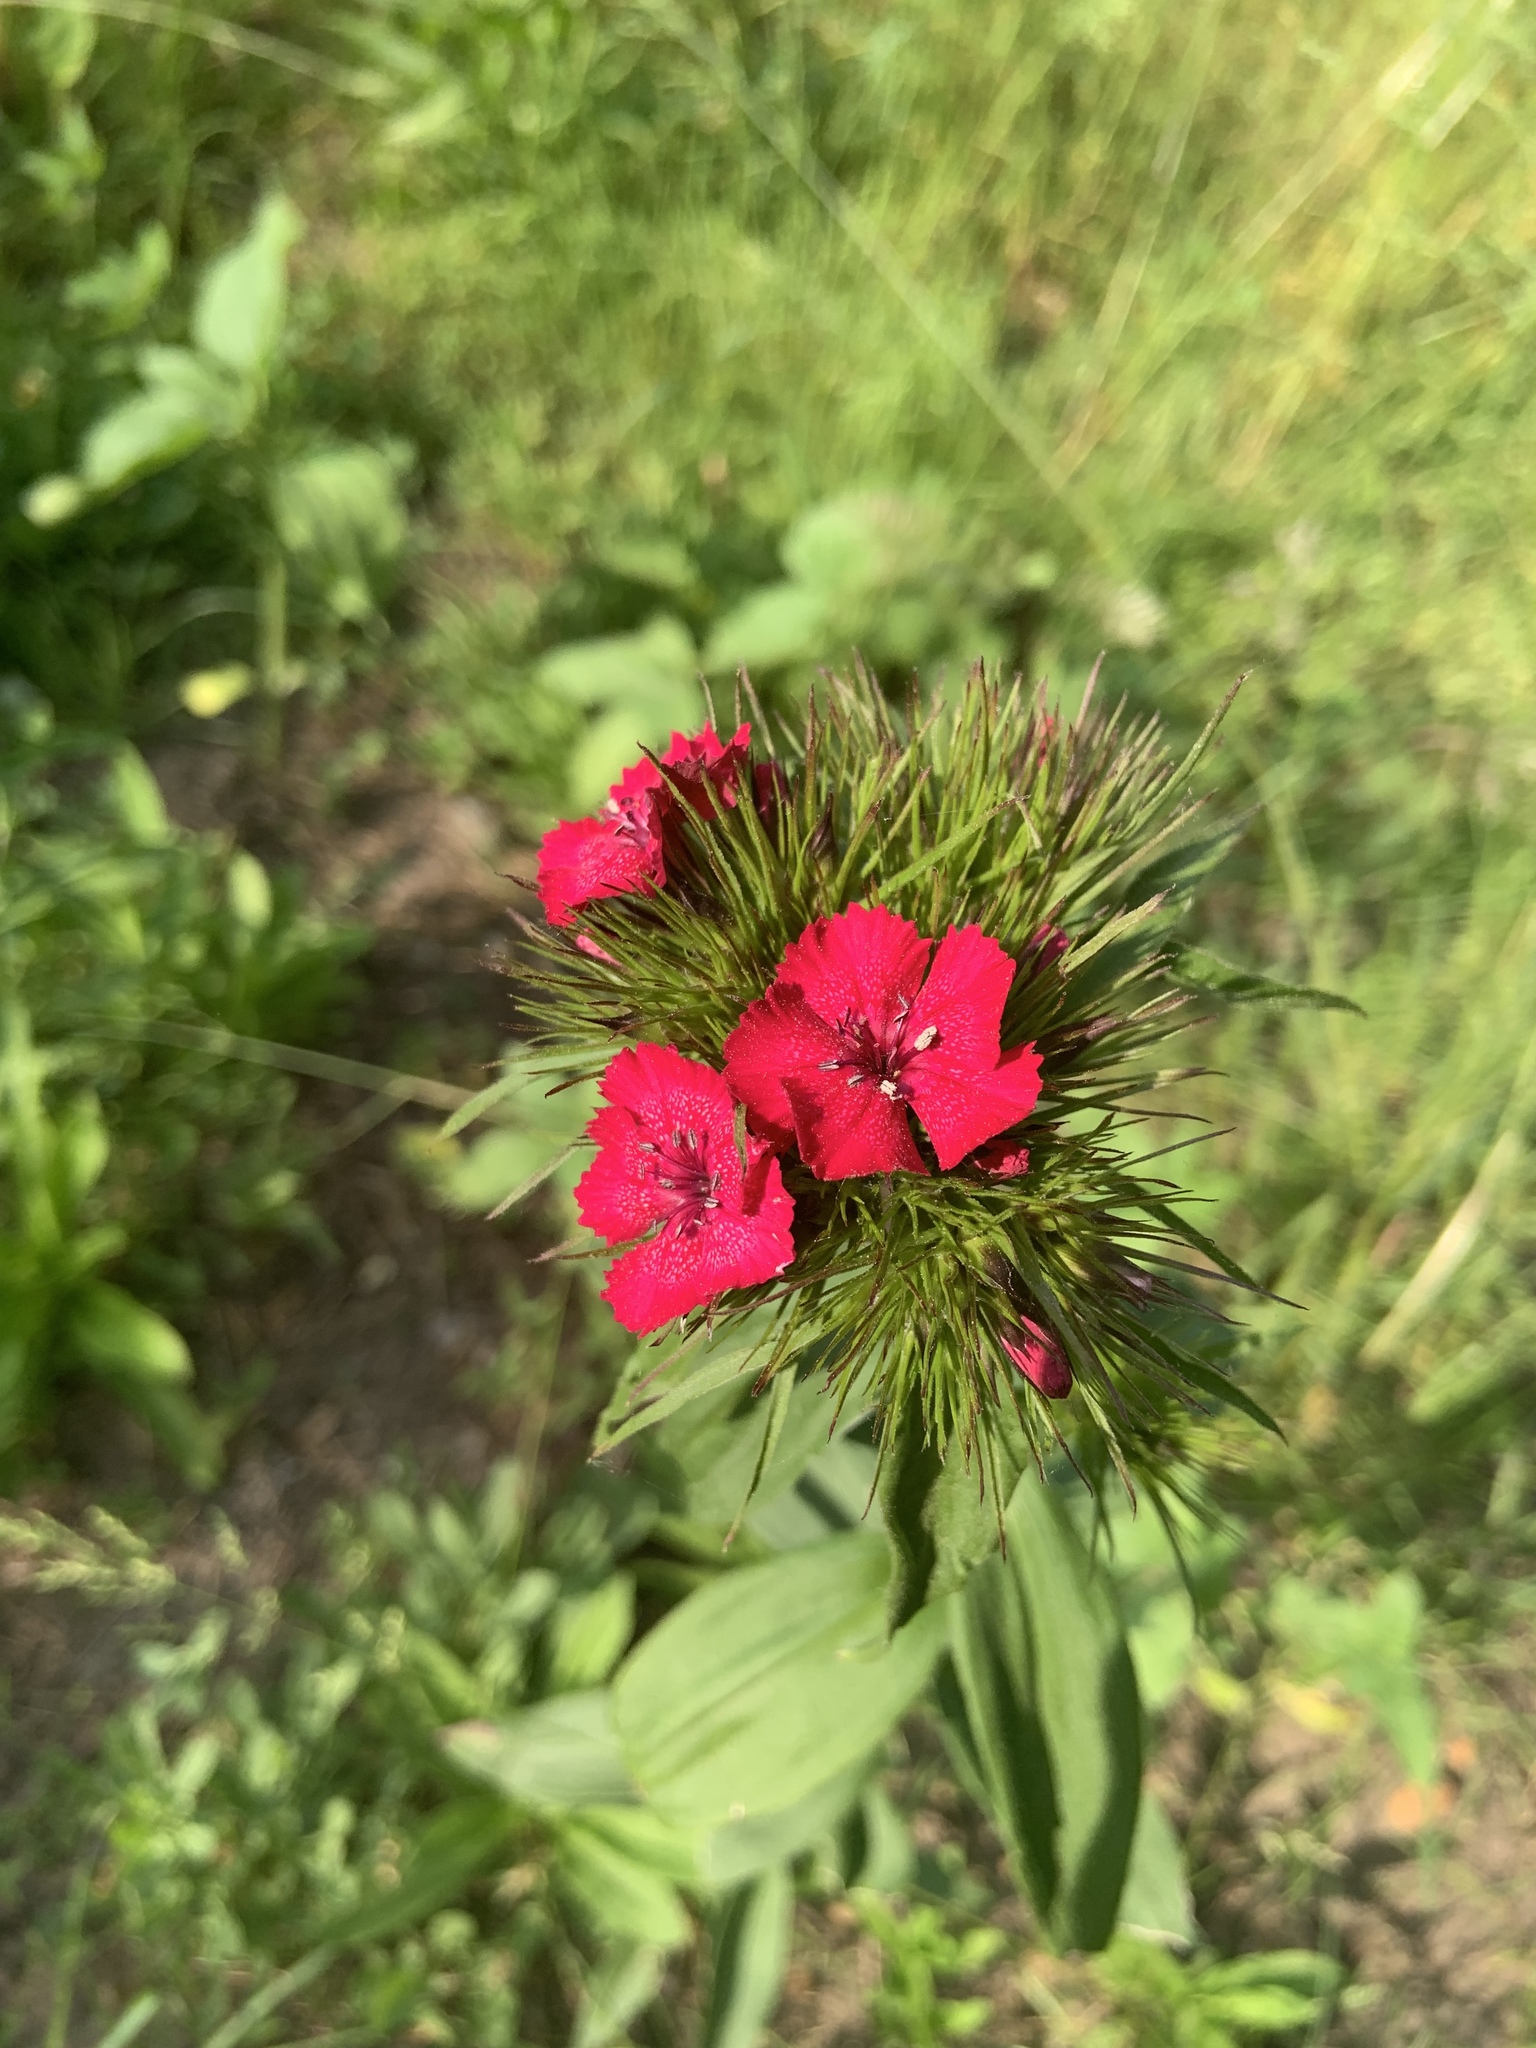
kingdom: Plantae
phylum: Tracheophyta
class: Magnoliopsida
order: Caryophyllales
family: Caryophyllaceae
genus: Dianthus
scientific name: Dianthus barbatus
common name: Sweet-william
